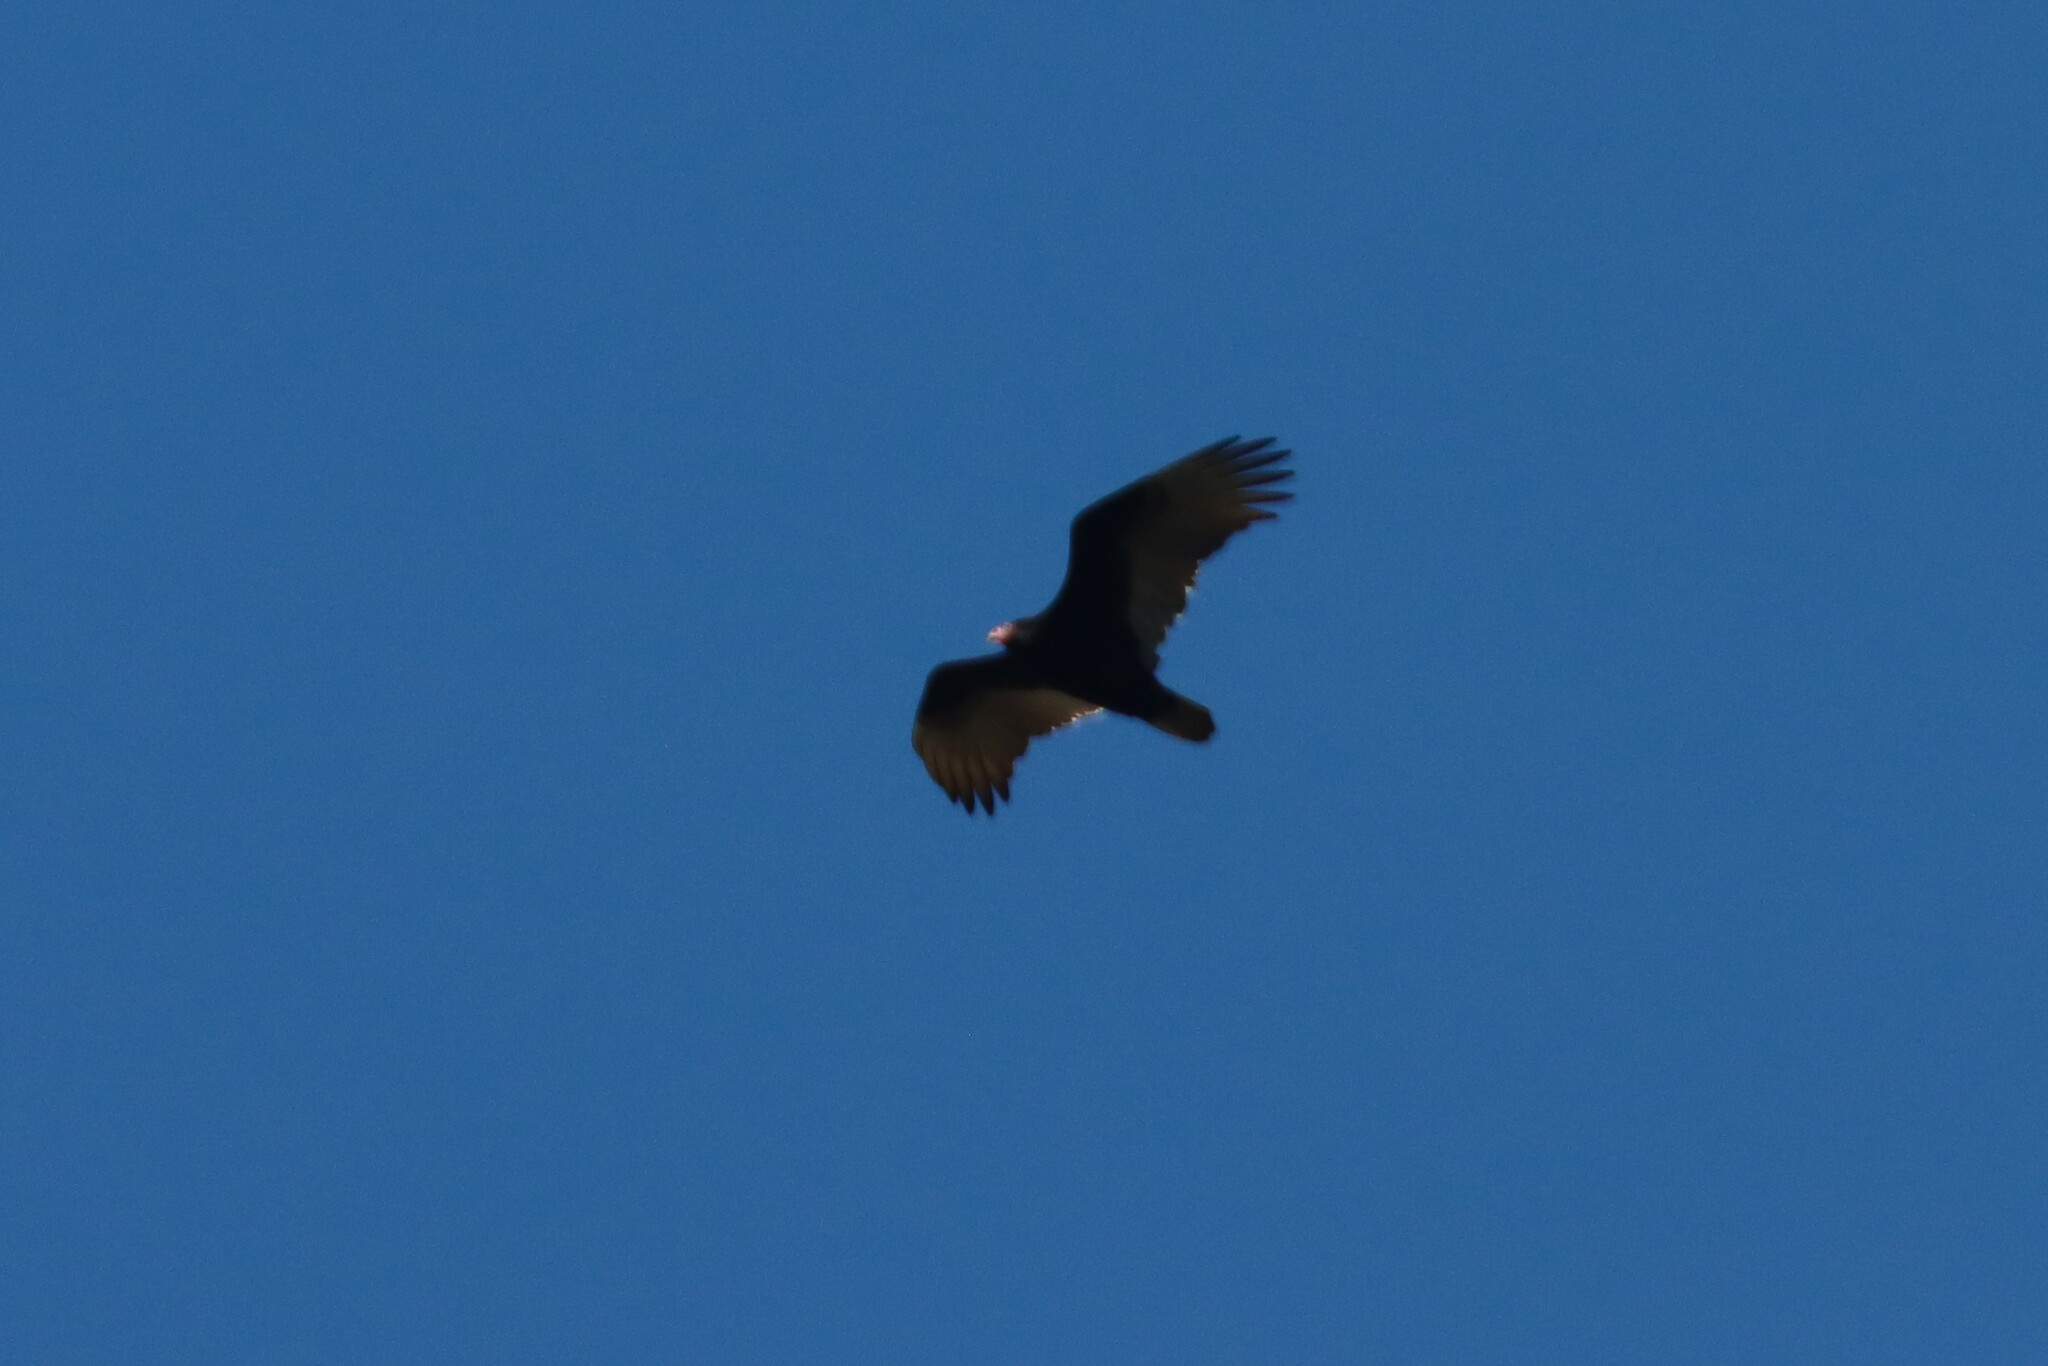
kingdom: Animalia
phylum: Chordata
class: Aves
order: Accipitriformes
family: Cathartidae
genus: Cathartes
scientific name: Cathartes aura
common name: Turkey vulture
